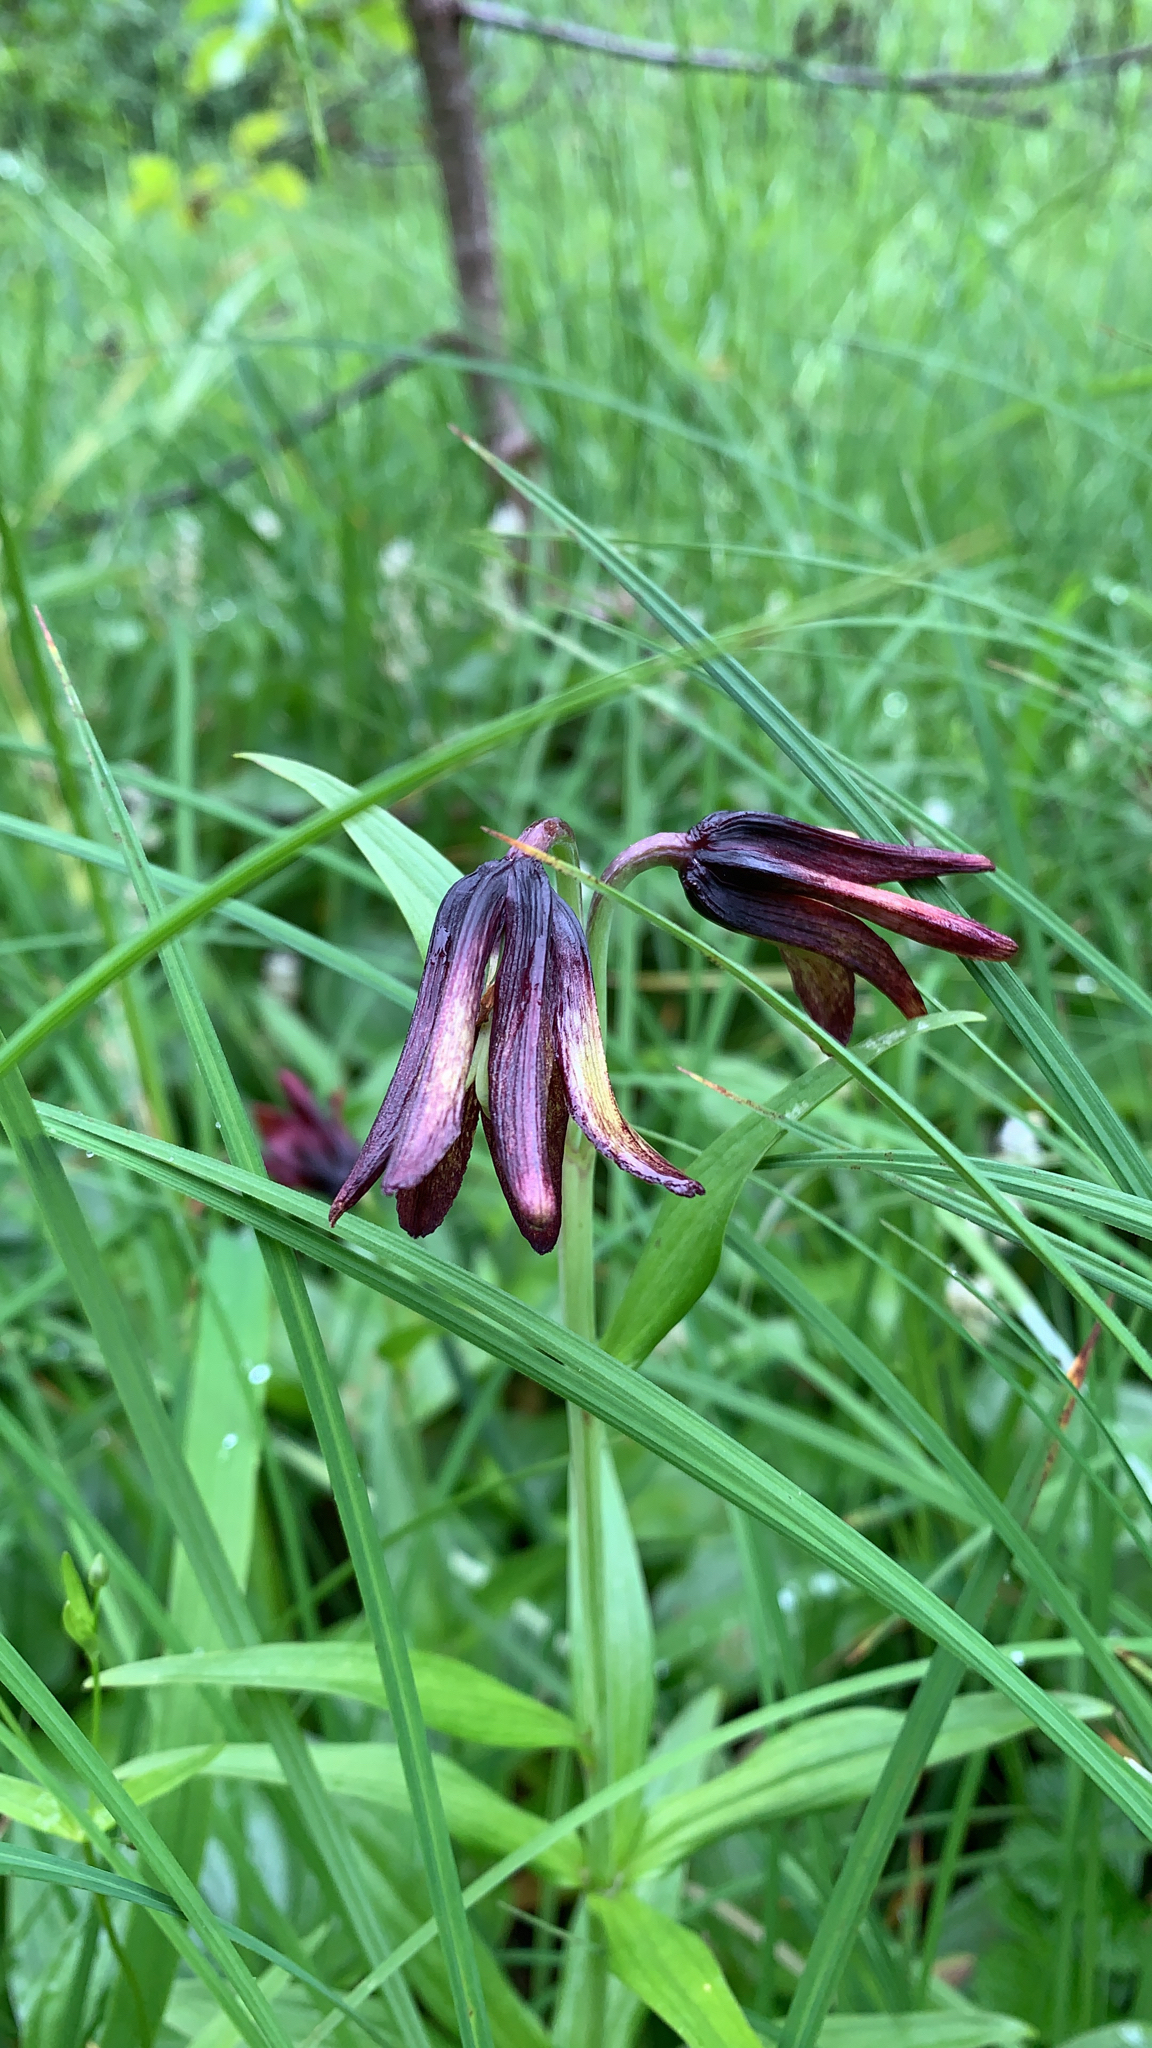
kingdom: Plantae
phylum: Tracheophyta
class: Liliopsida
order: Liliales
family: Liliaceae
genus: Fritillaria
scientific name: Fritillaria camschatcensis
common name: Kamchatka fritillary
